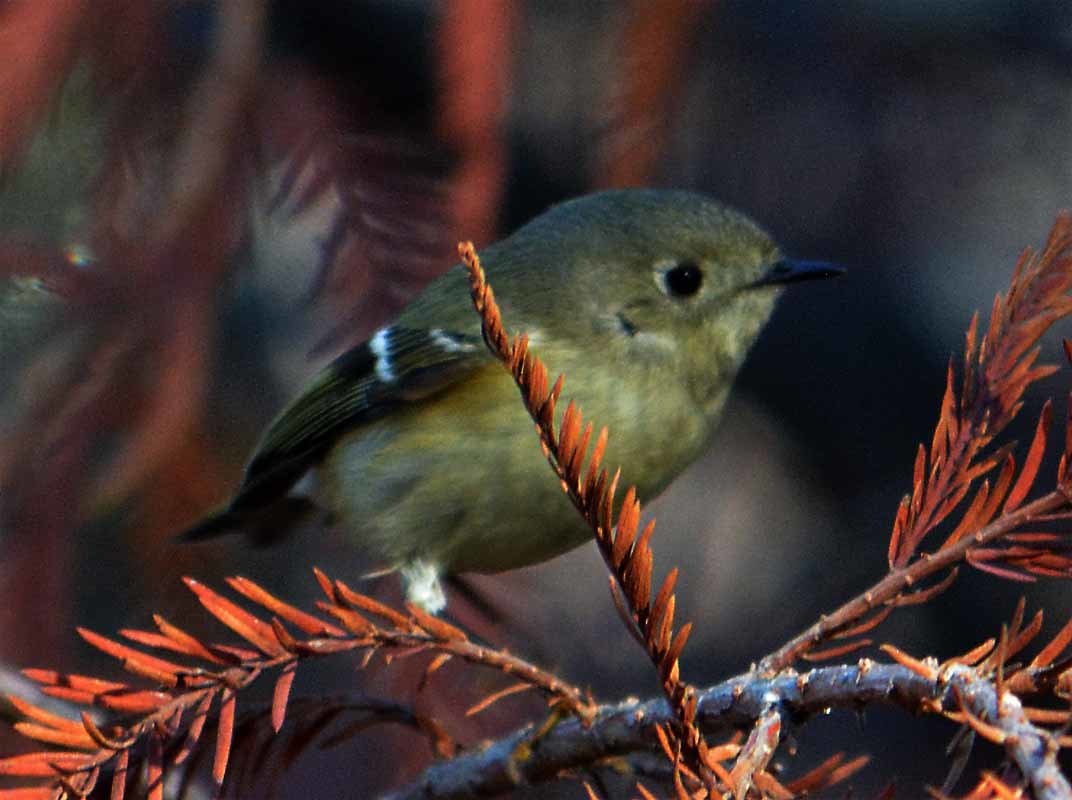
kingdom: Animalia
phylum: Chordata
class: Aves
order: Passeriformes
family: Regulidae
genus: Regulus
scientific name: Regulus calendula
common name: Ruby-crowned kinglet
